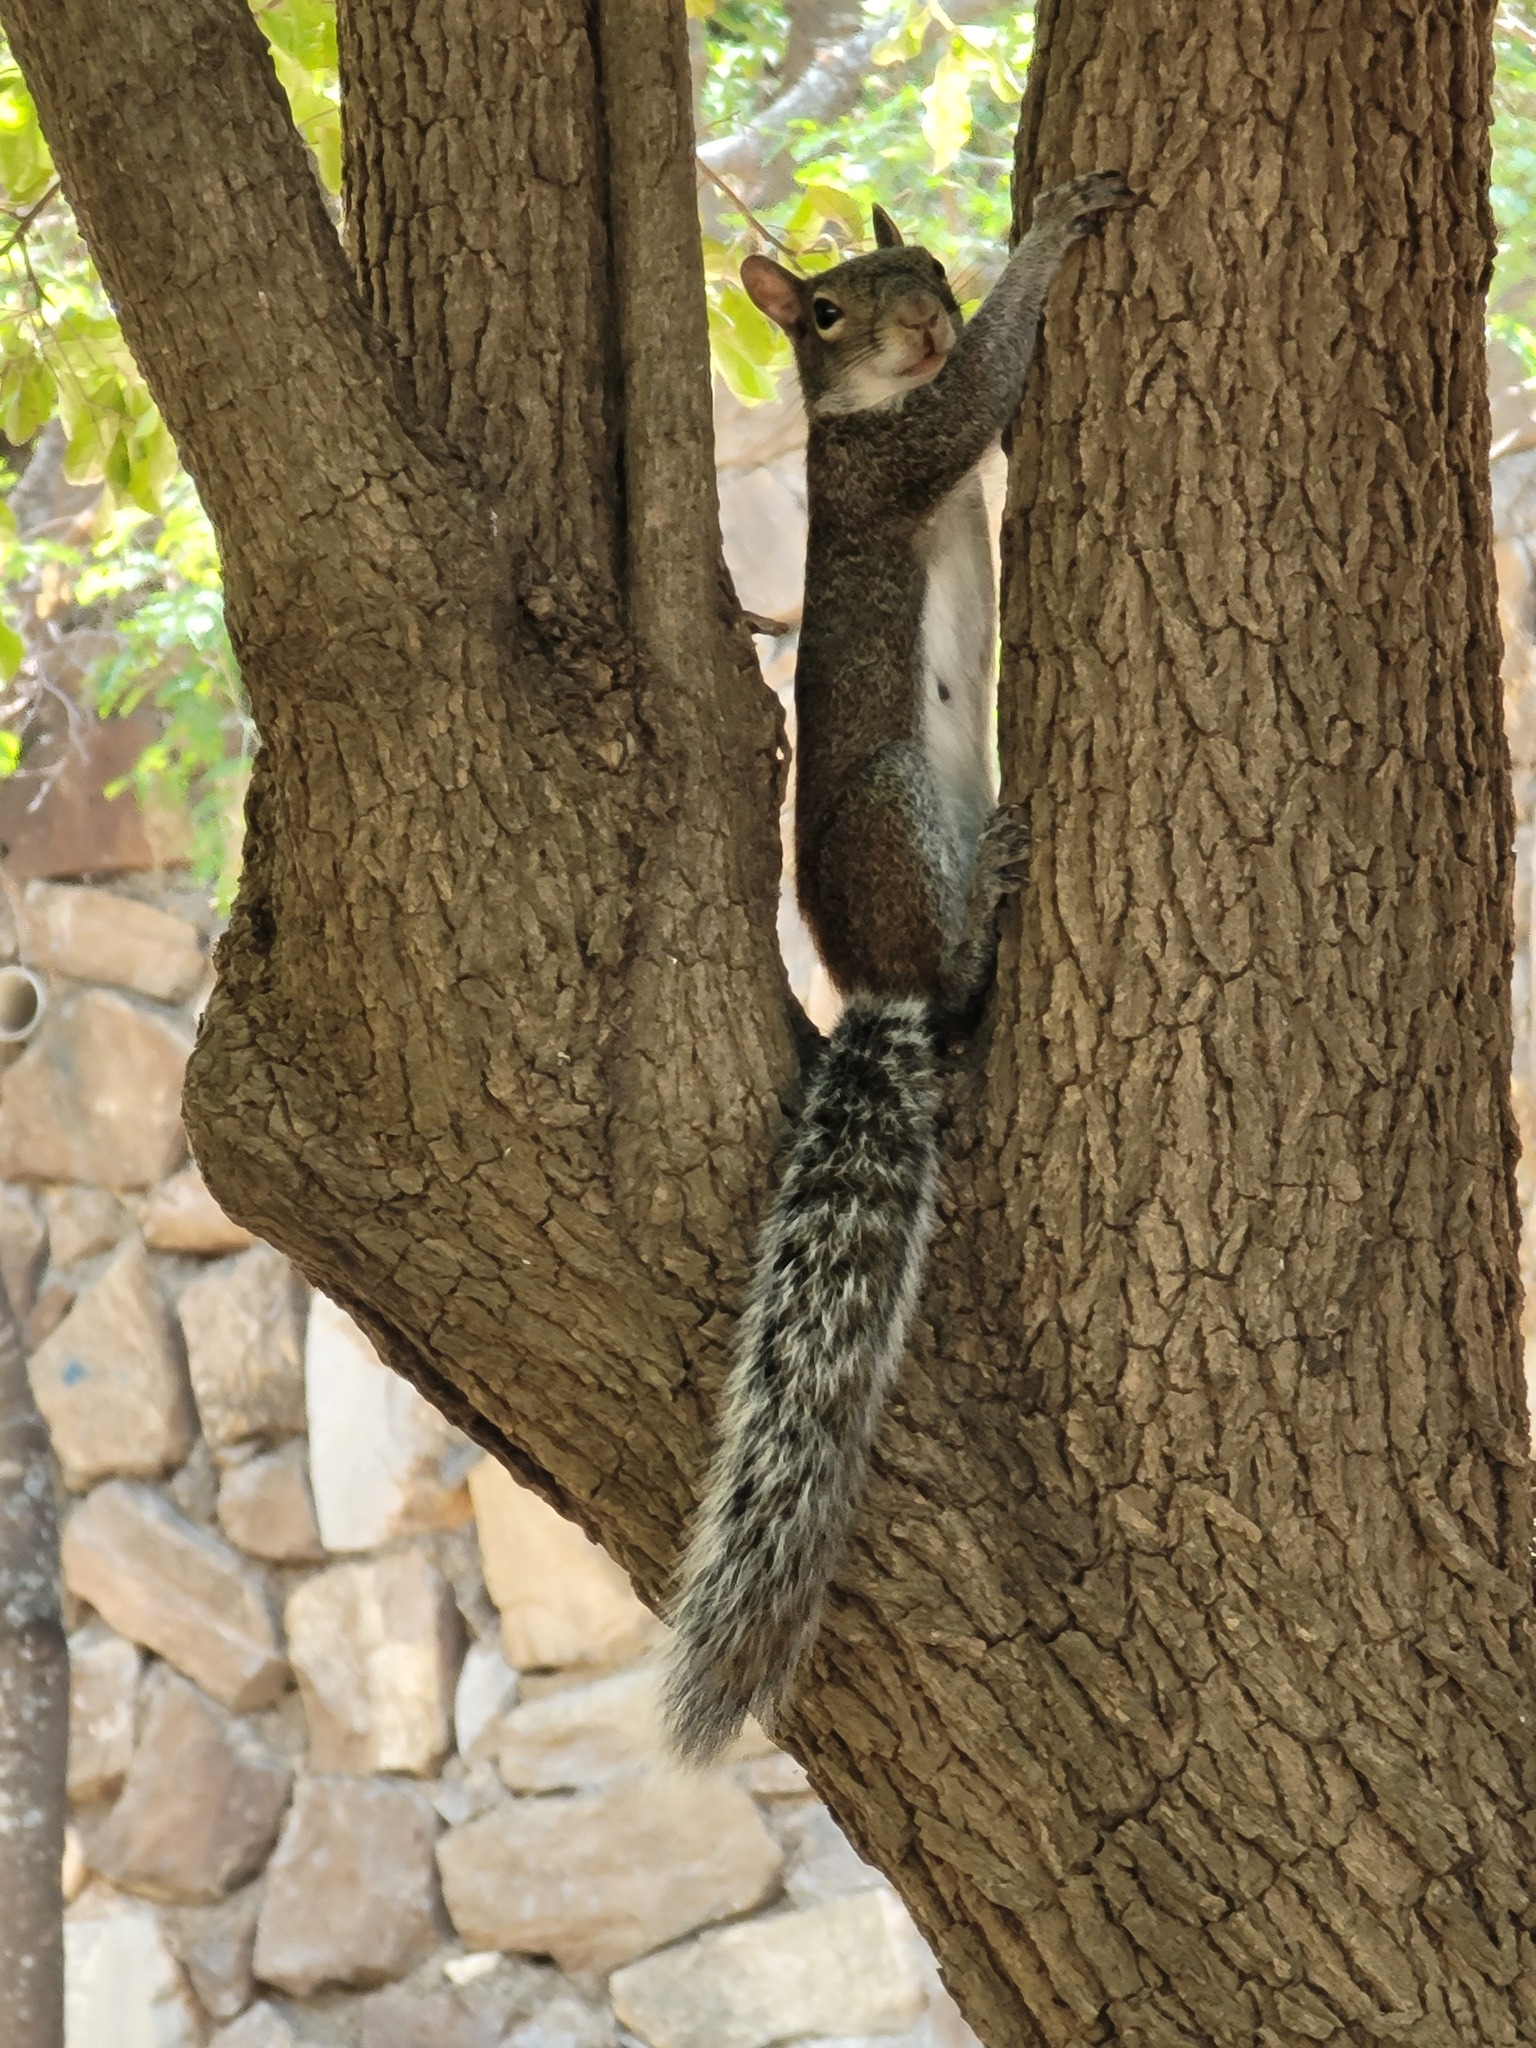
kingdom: Animalia
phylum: Chordata
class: Mammalia
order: Rodentia
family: Sciuridae
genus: Sciurus
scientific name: Sciurus alleni
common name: Allen's squirrel
